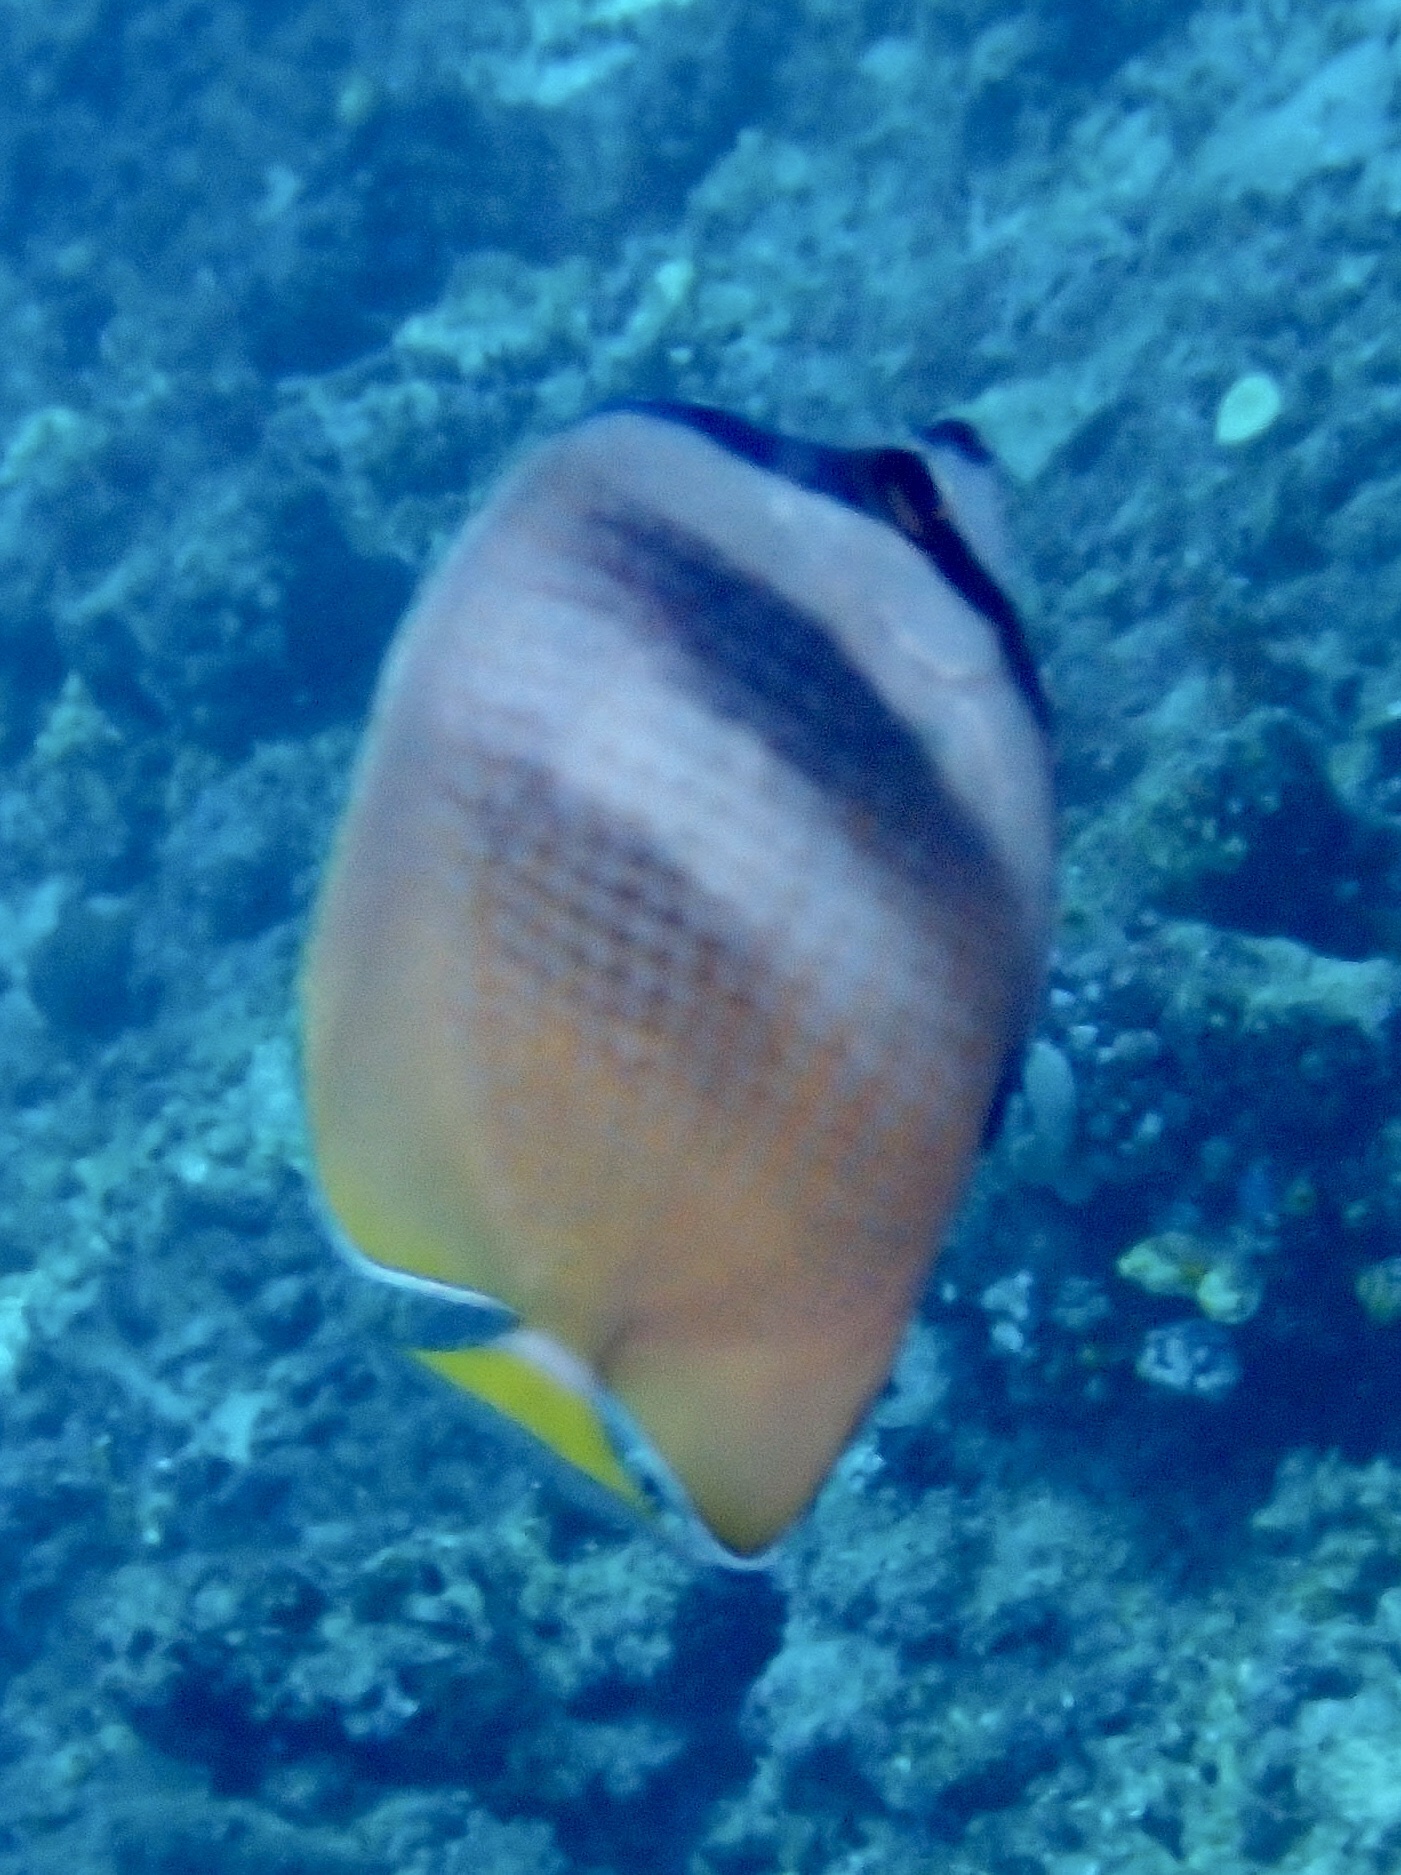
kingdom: Animalia
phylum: Chordata
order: Perciformes
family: Chaetodontidae
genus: Chaetodon
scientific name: Chaetodon kleinii
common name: Klein's butterflyfish
